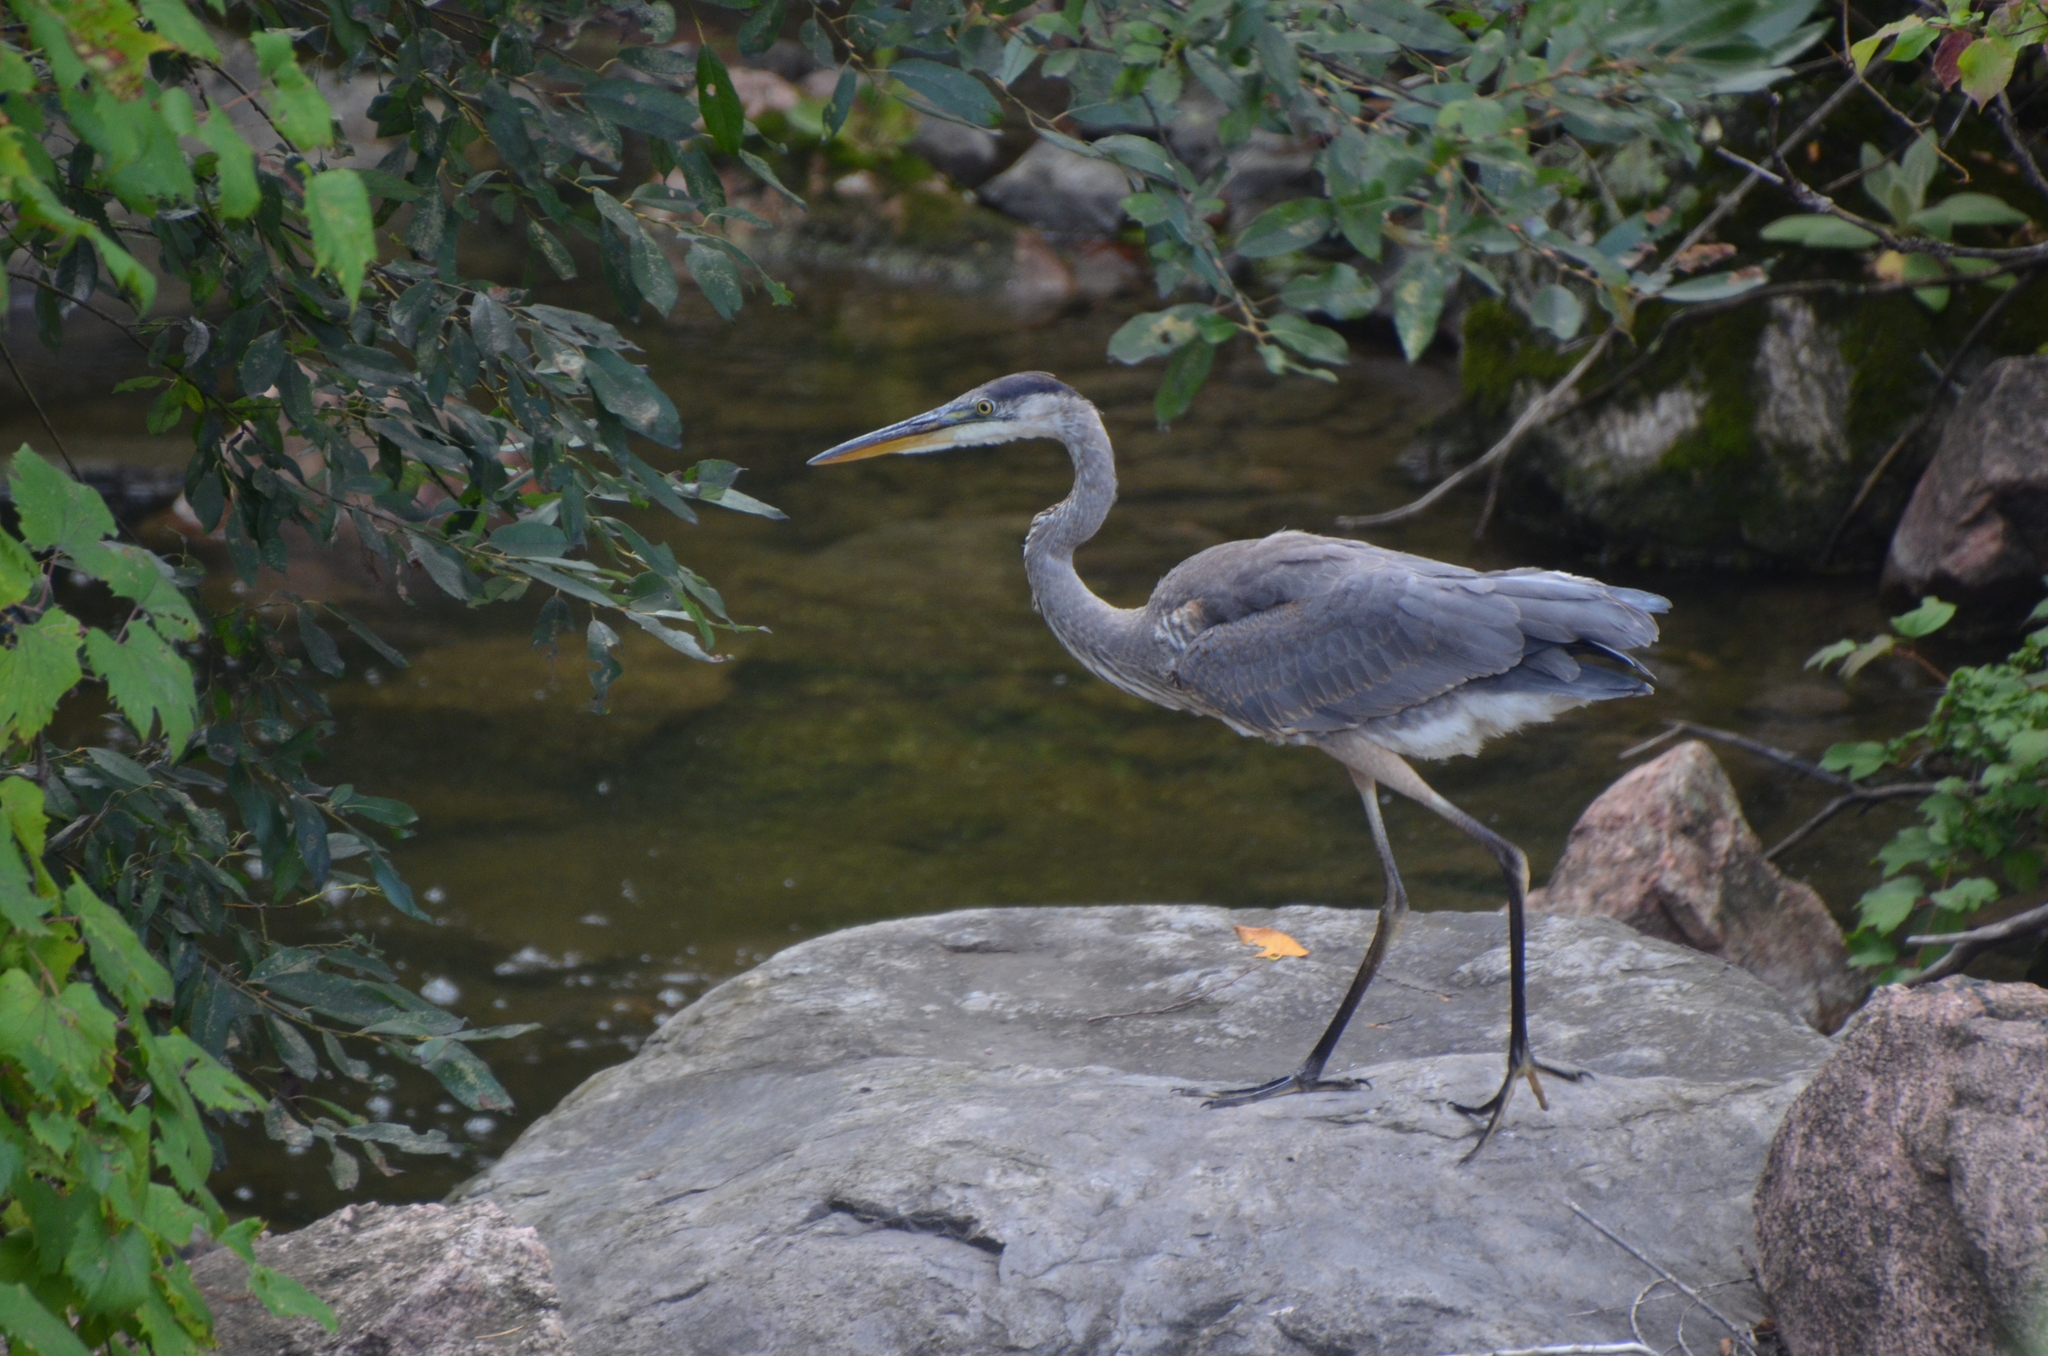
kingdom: Animalia
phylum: Chordata
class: Aves
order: Pelecaniformes
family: Ardeidae
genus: Ardea
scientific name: Ardea herodias
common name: Great blue heron
